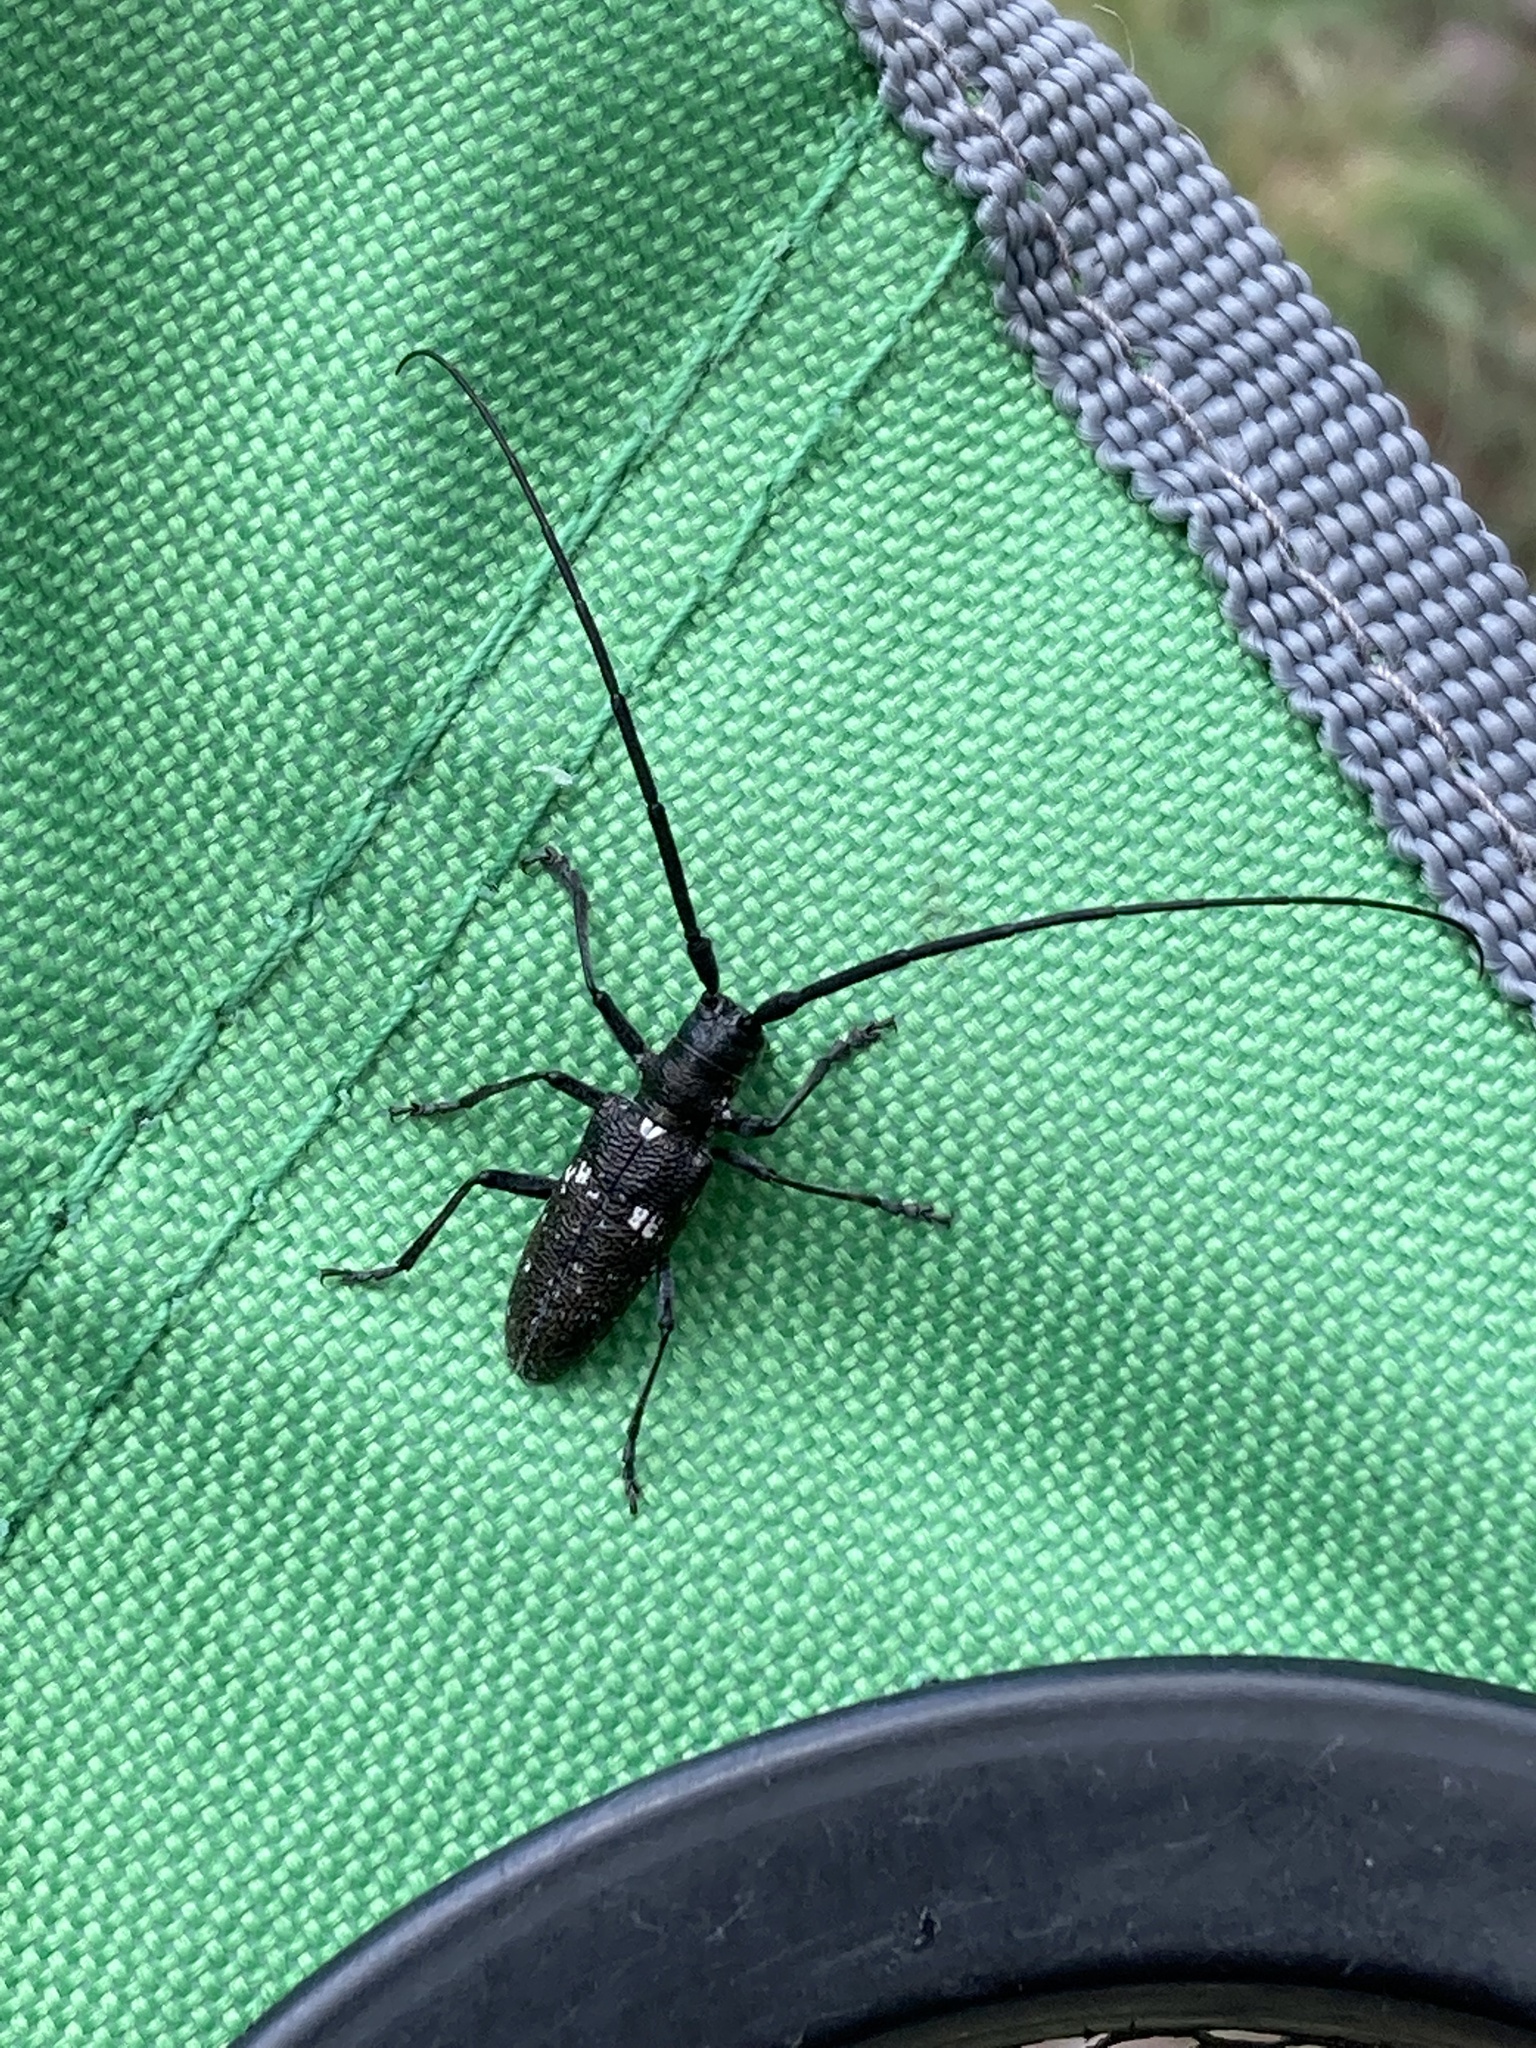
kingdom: Animalia
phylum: Arthropoda
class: Insecta
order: Coleoptera
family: Cerambycidae
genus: Monochamus
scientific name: Monochamus scutellatus
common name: White-spotted sawyer beetle
